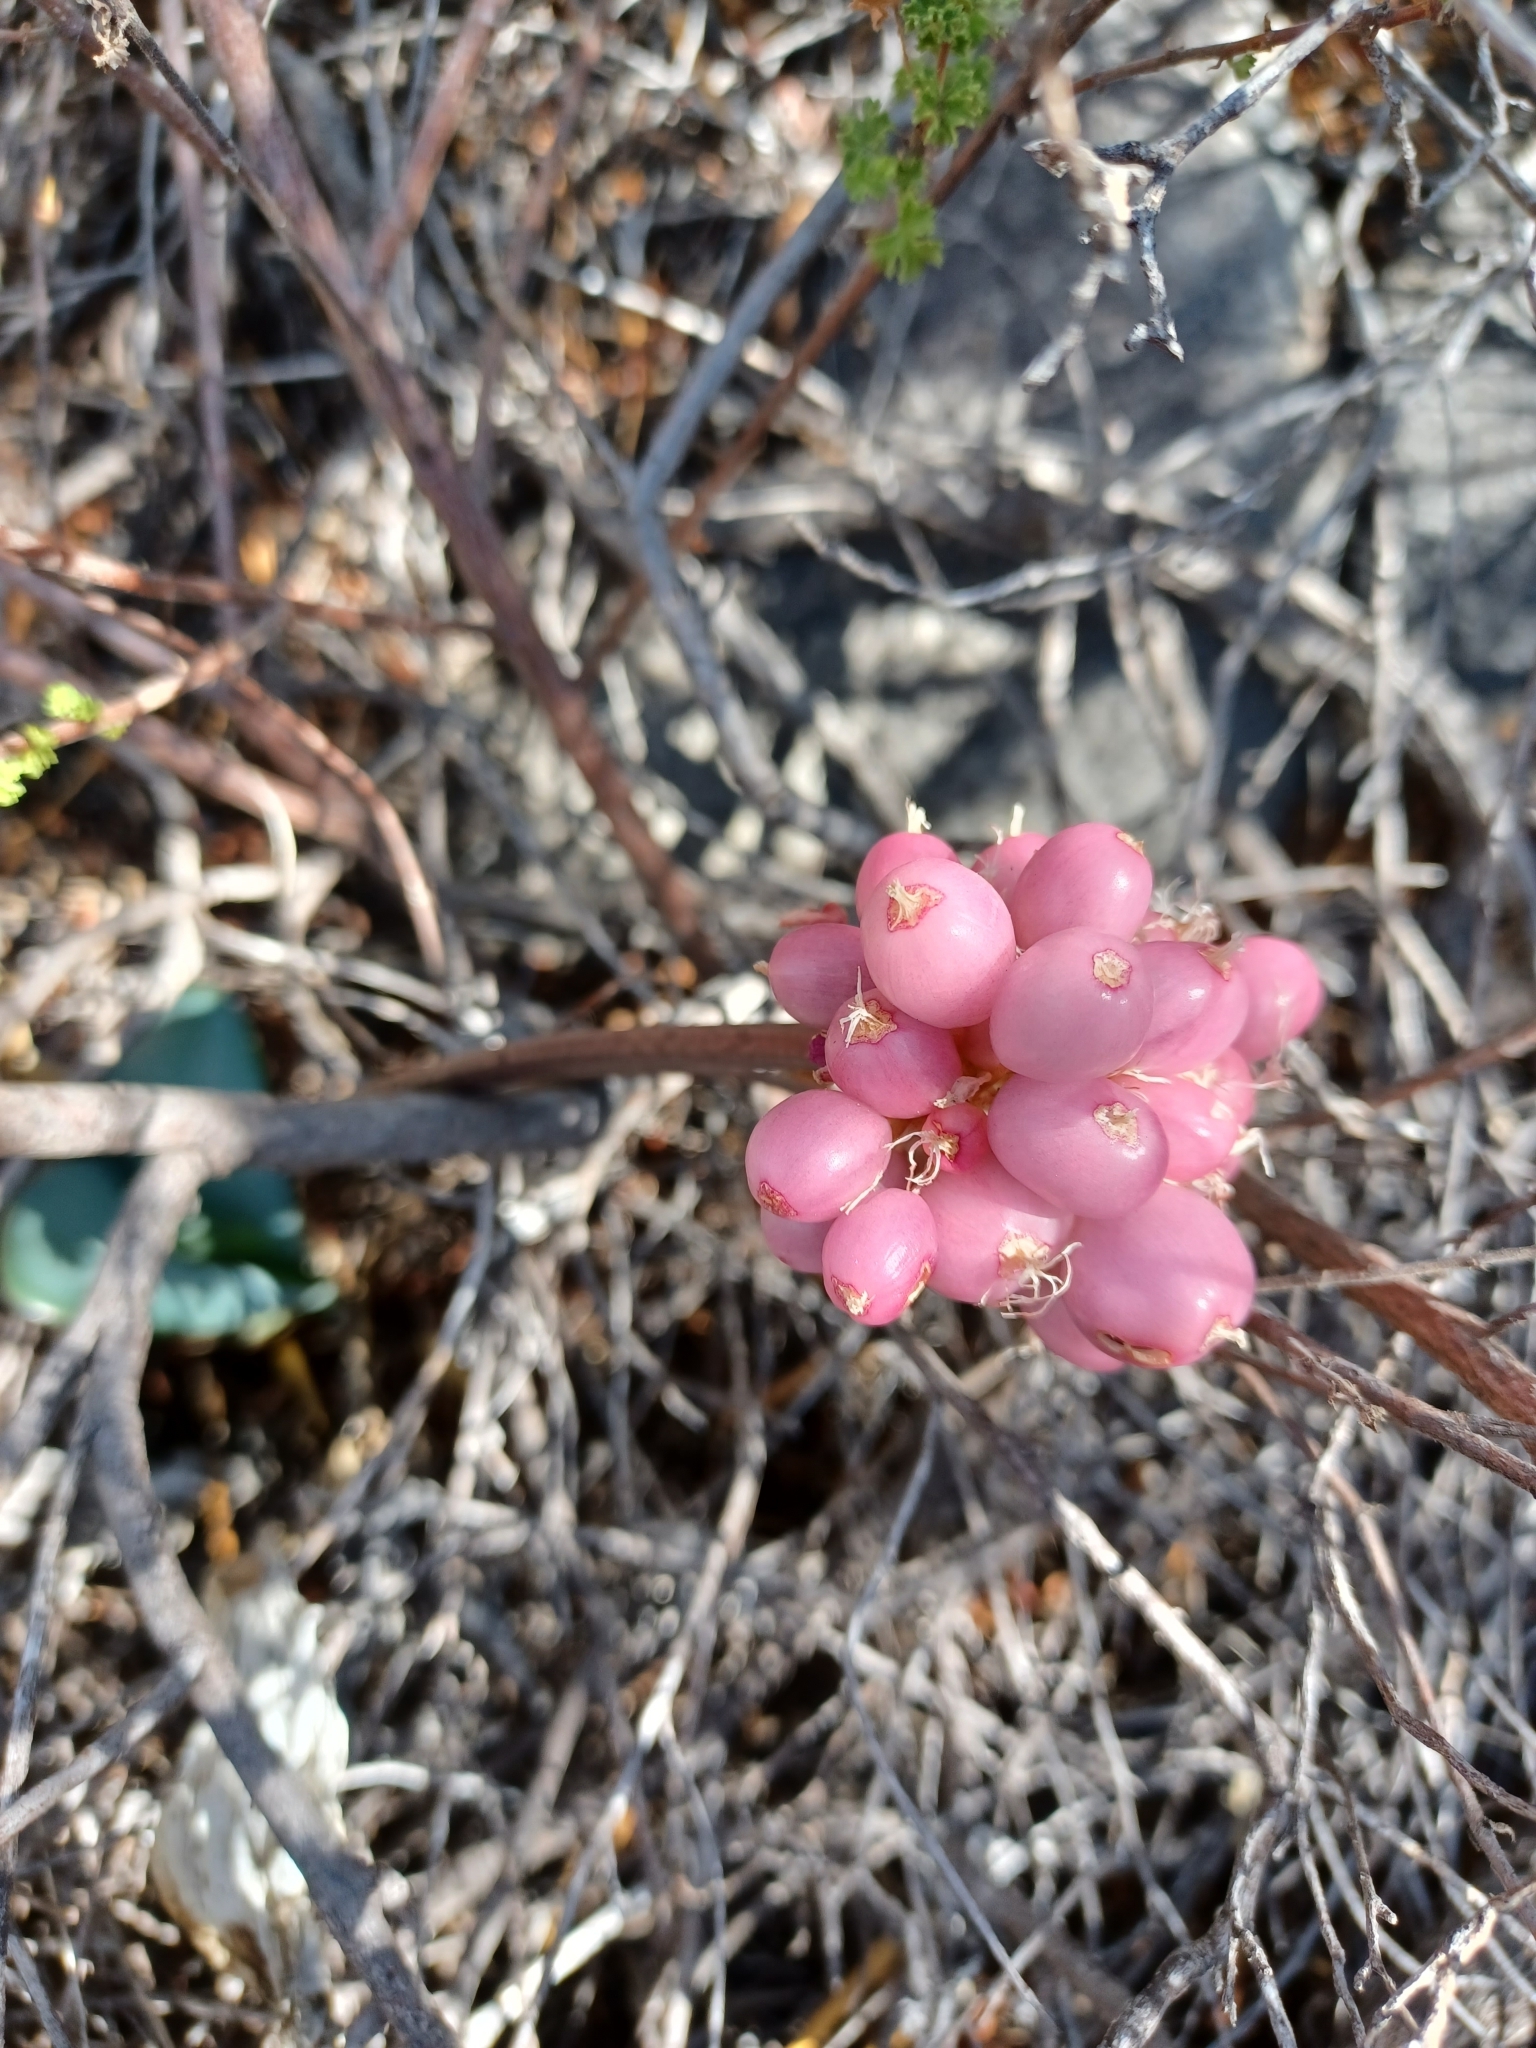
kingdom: Plantae
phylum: Tracheophyta
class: Liliopsida
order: Asparagales
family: Amaryllidaceae
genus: Haemanthus
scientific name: Haemanthus coccineus
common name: Cape-tulip
